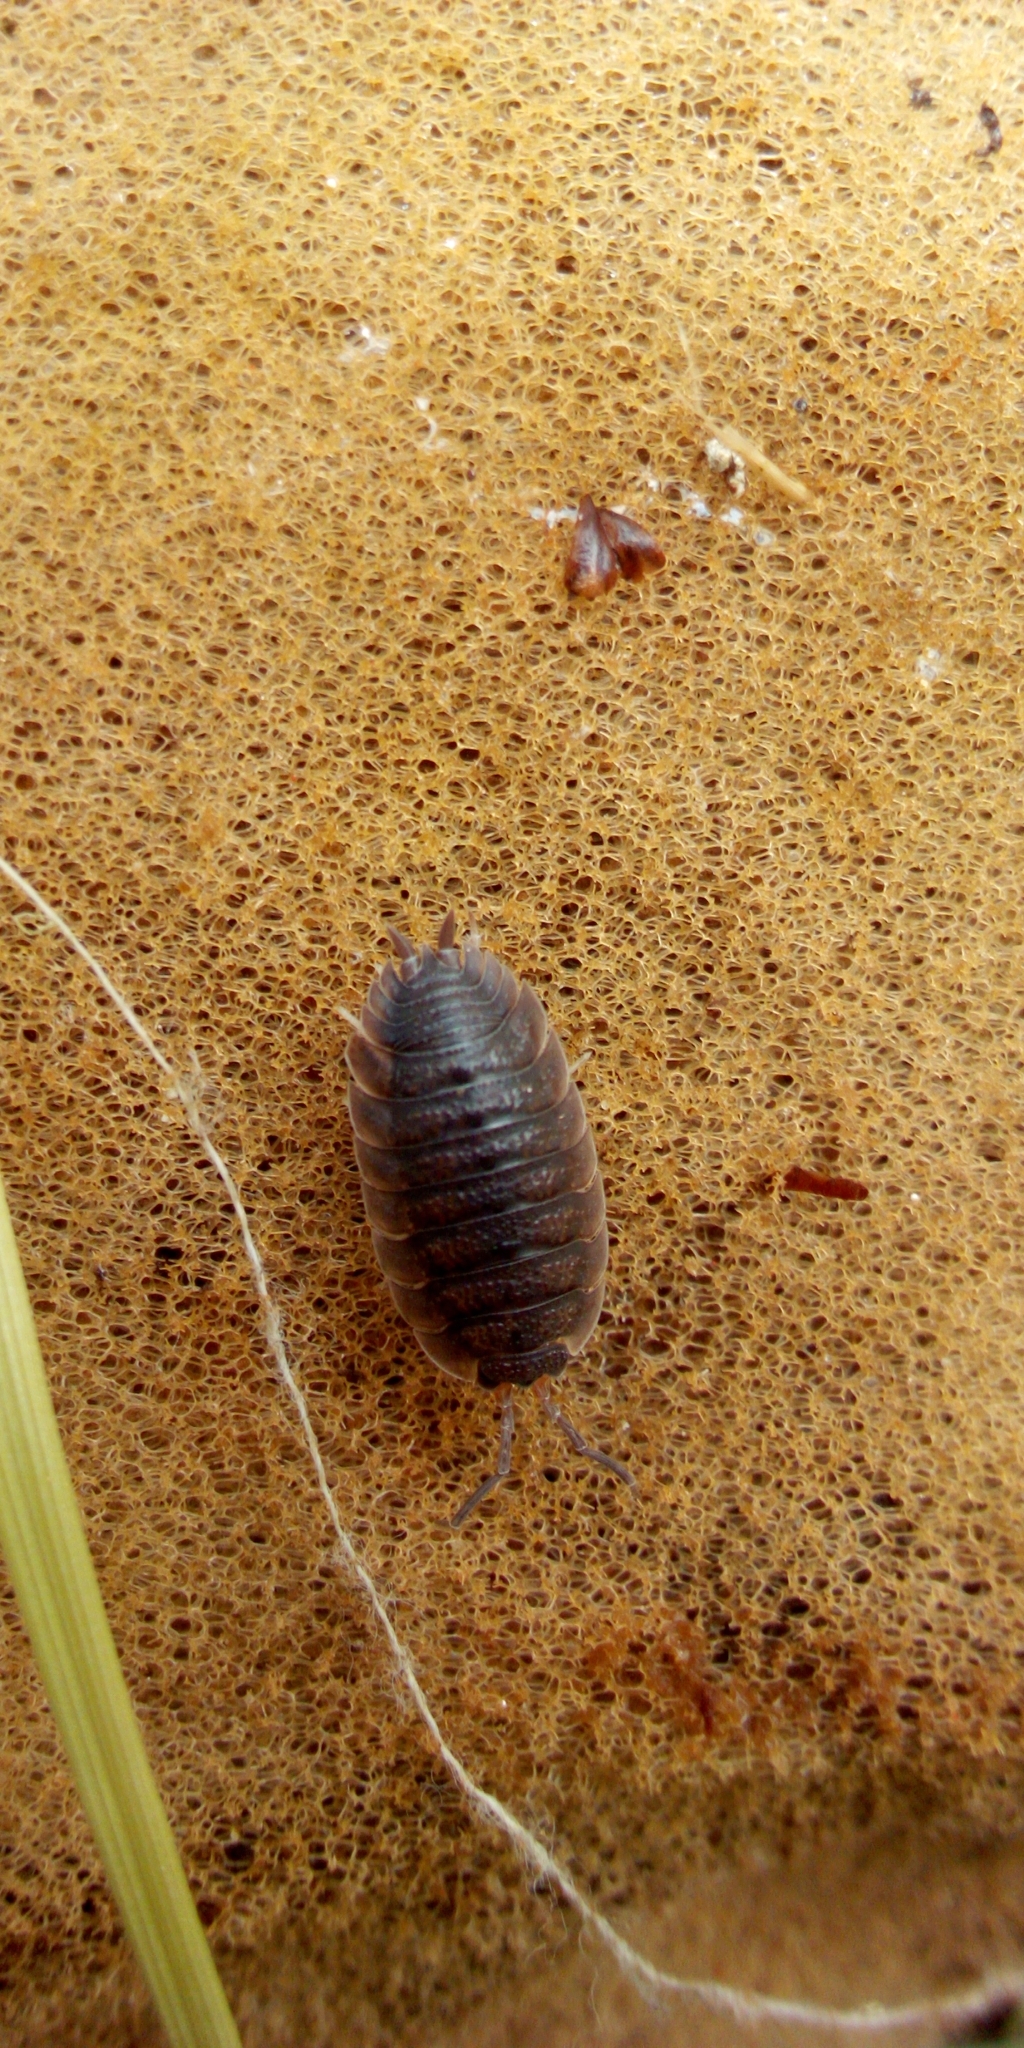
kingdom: Animalia
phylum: Arthropoda
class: Malacostraca
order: Isopoda
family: Porcellionidae
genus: Porcellio
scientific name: Porcellio scaber
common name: Common rough woodlouse
